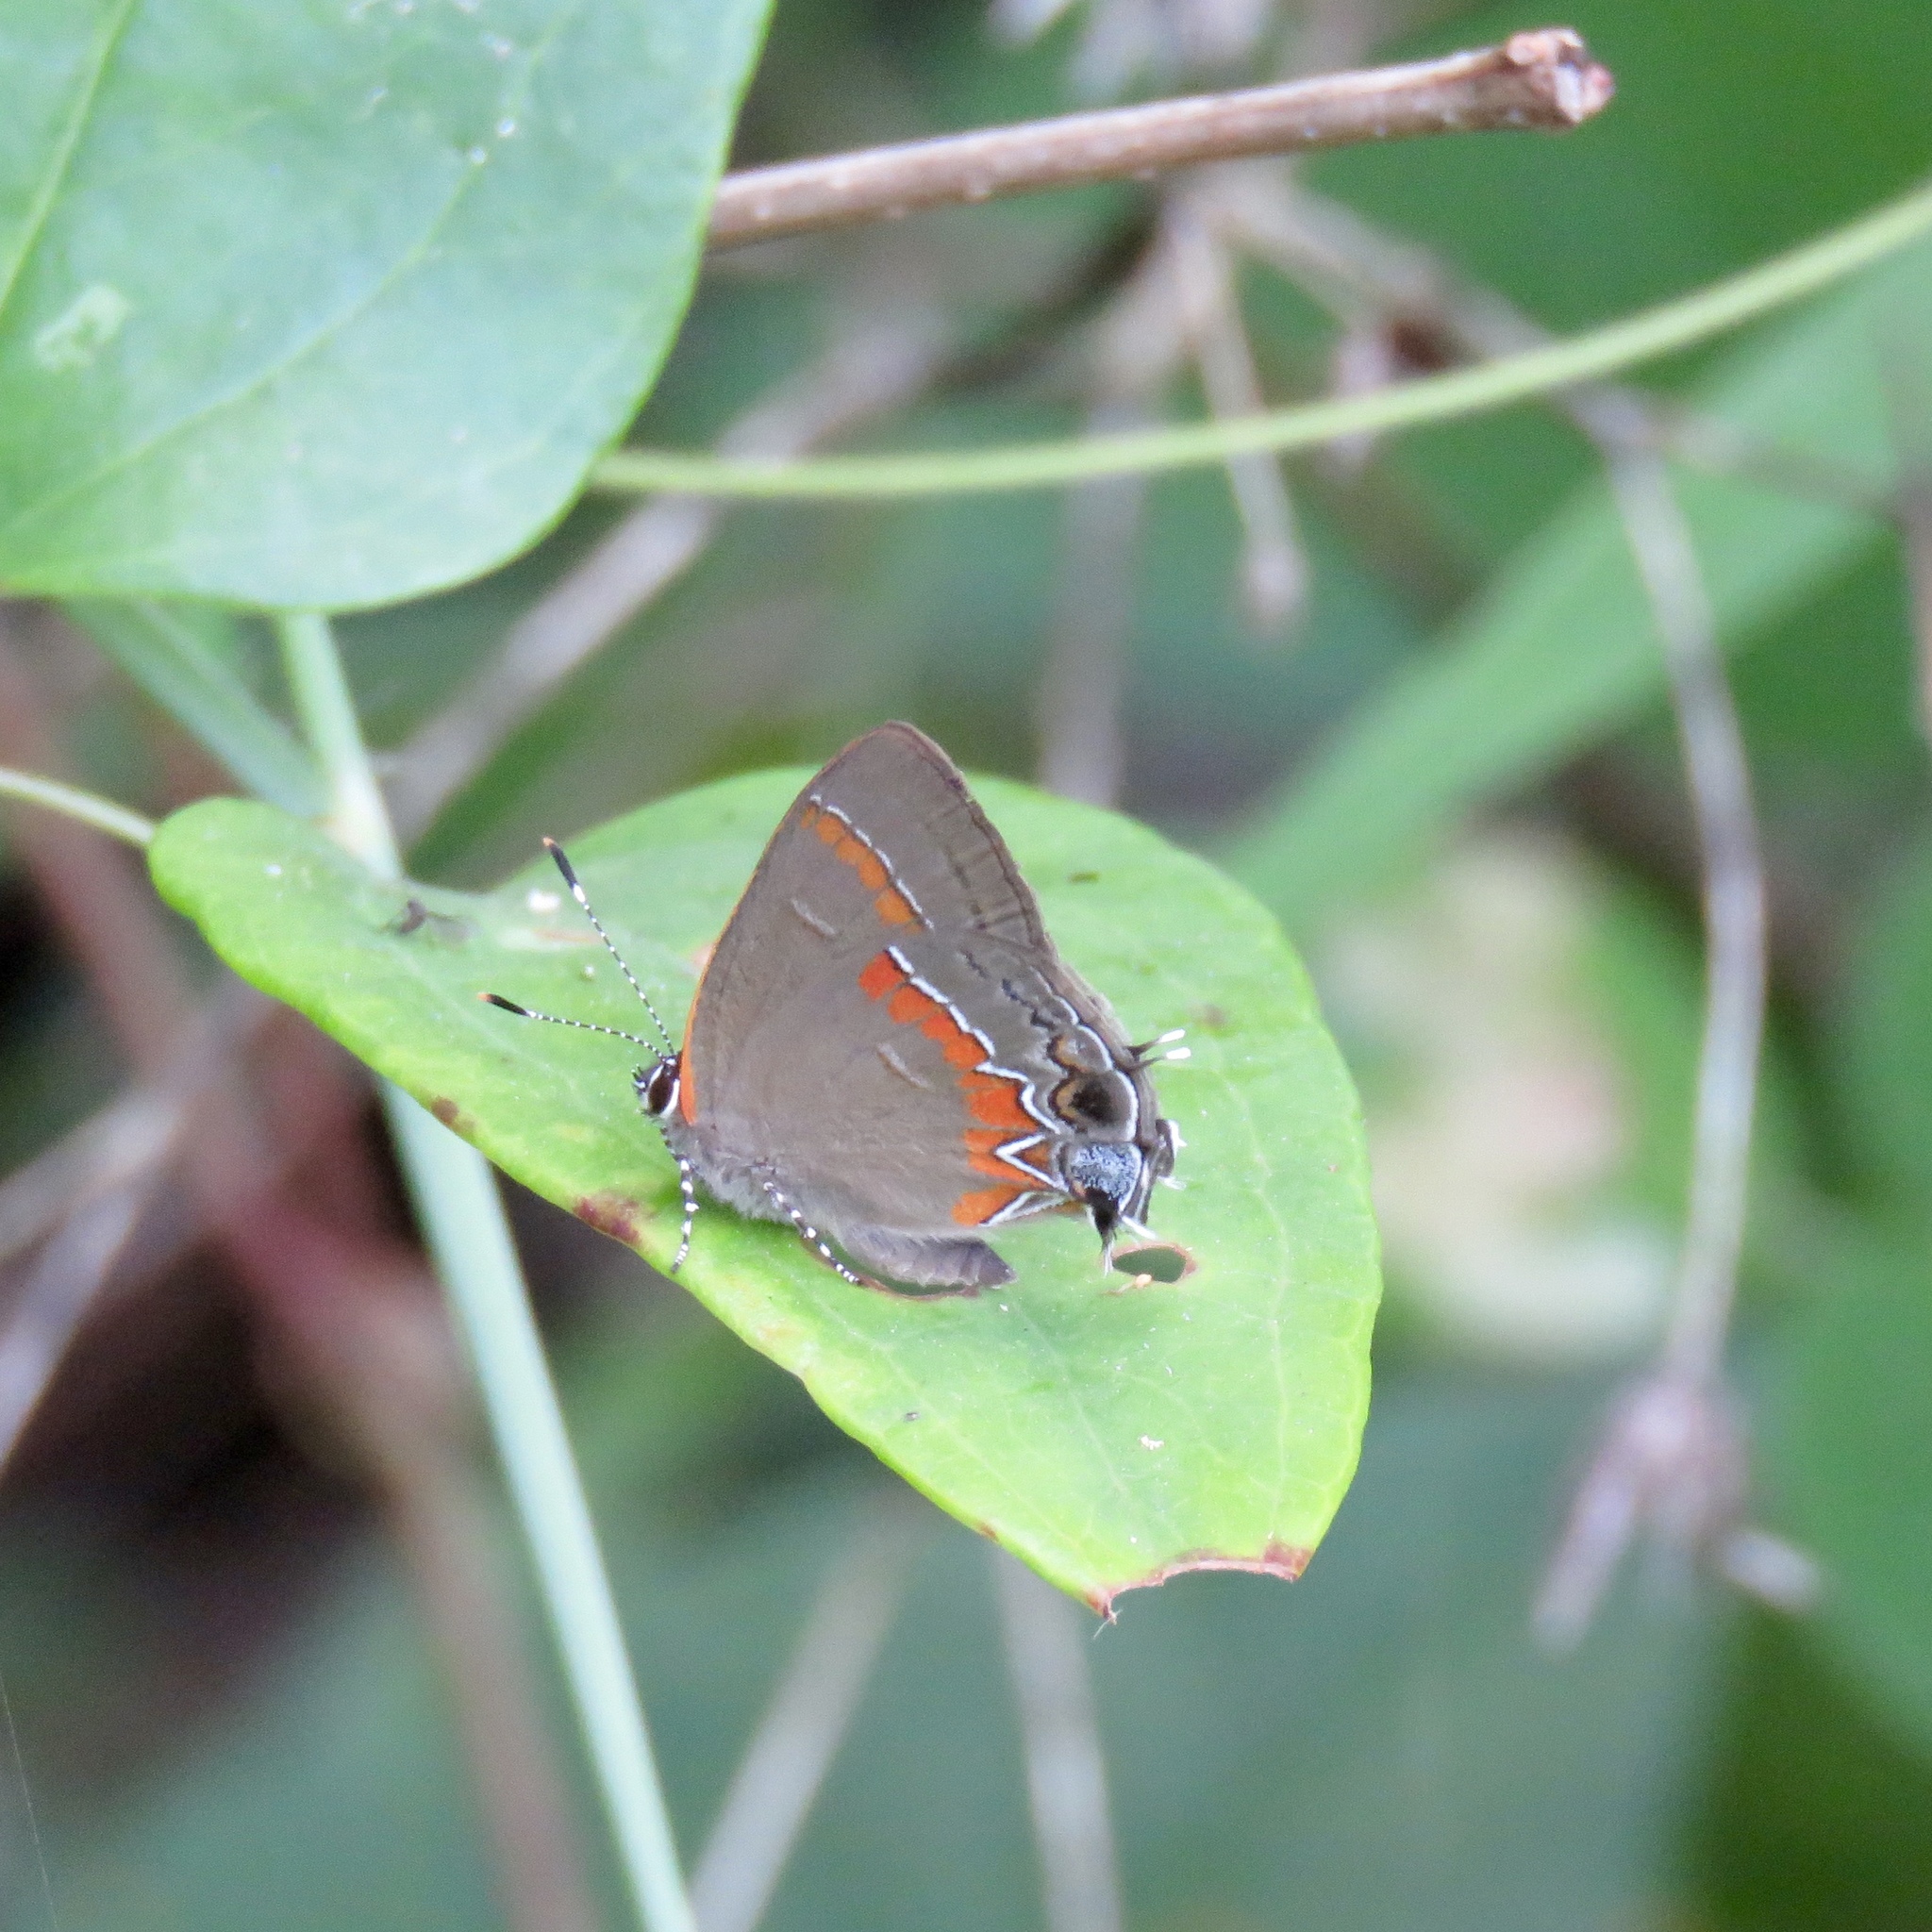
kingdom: Animalia
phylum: Arthropoda
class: Insecta
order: Lepidoptera
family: Lycaenidae
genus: Calycopis
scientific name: Calycopis cecrops
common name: Red-banded hairstreak
